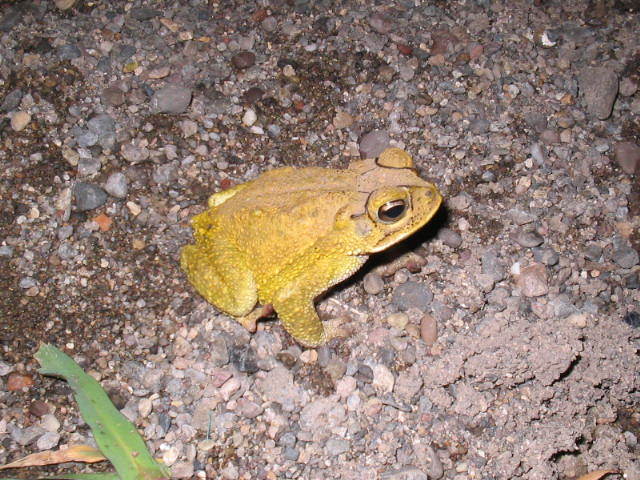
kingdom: Animalia
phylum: Chordata
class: Amphibia
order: Anura
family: Bufonidae
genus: Incilius
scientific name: Incilius luetkenii
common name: Yellow toad
